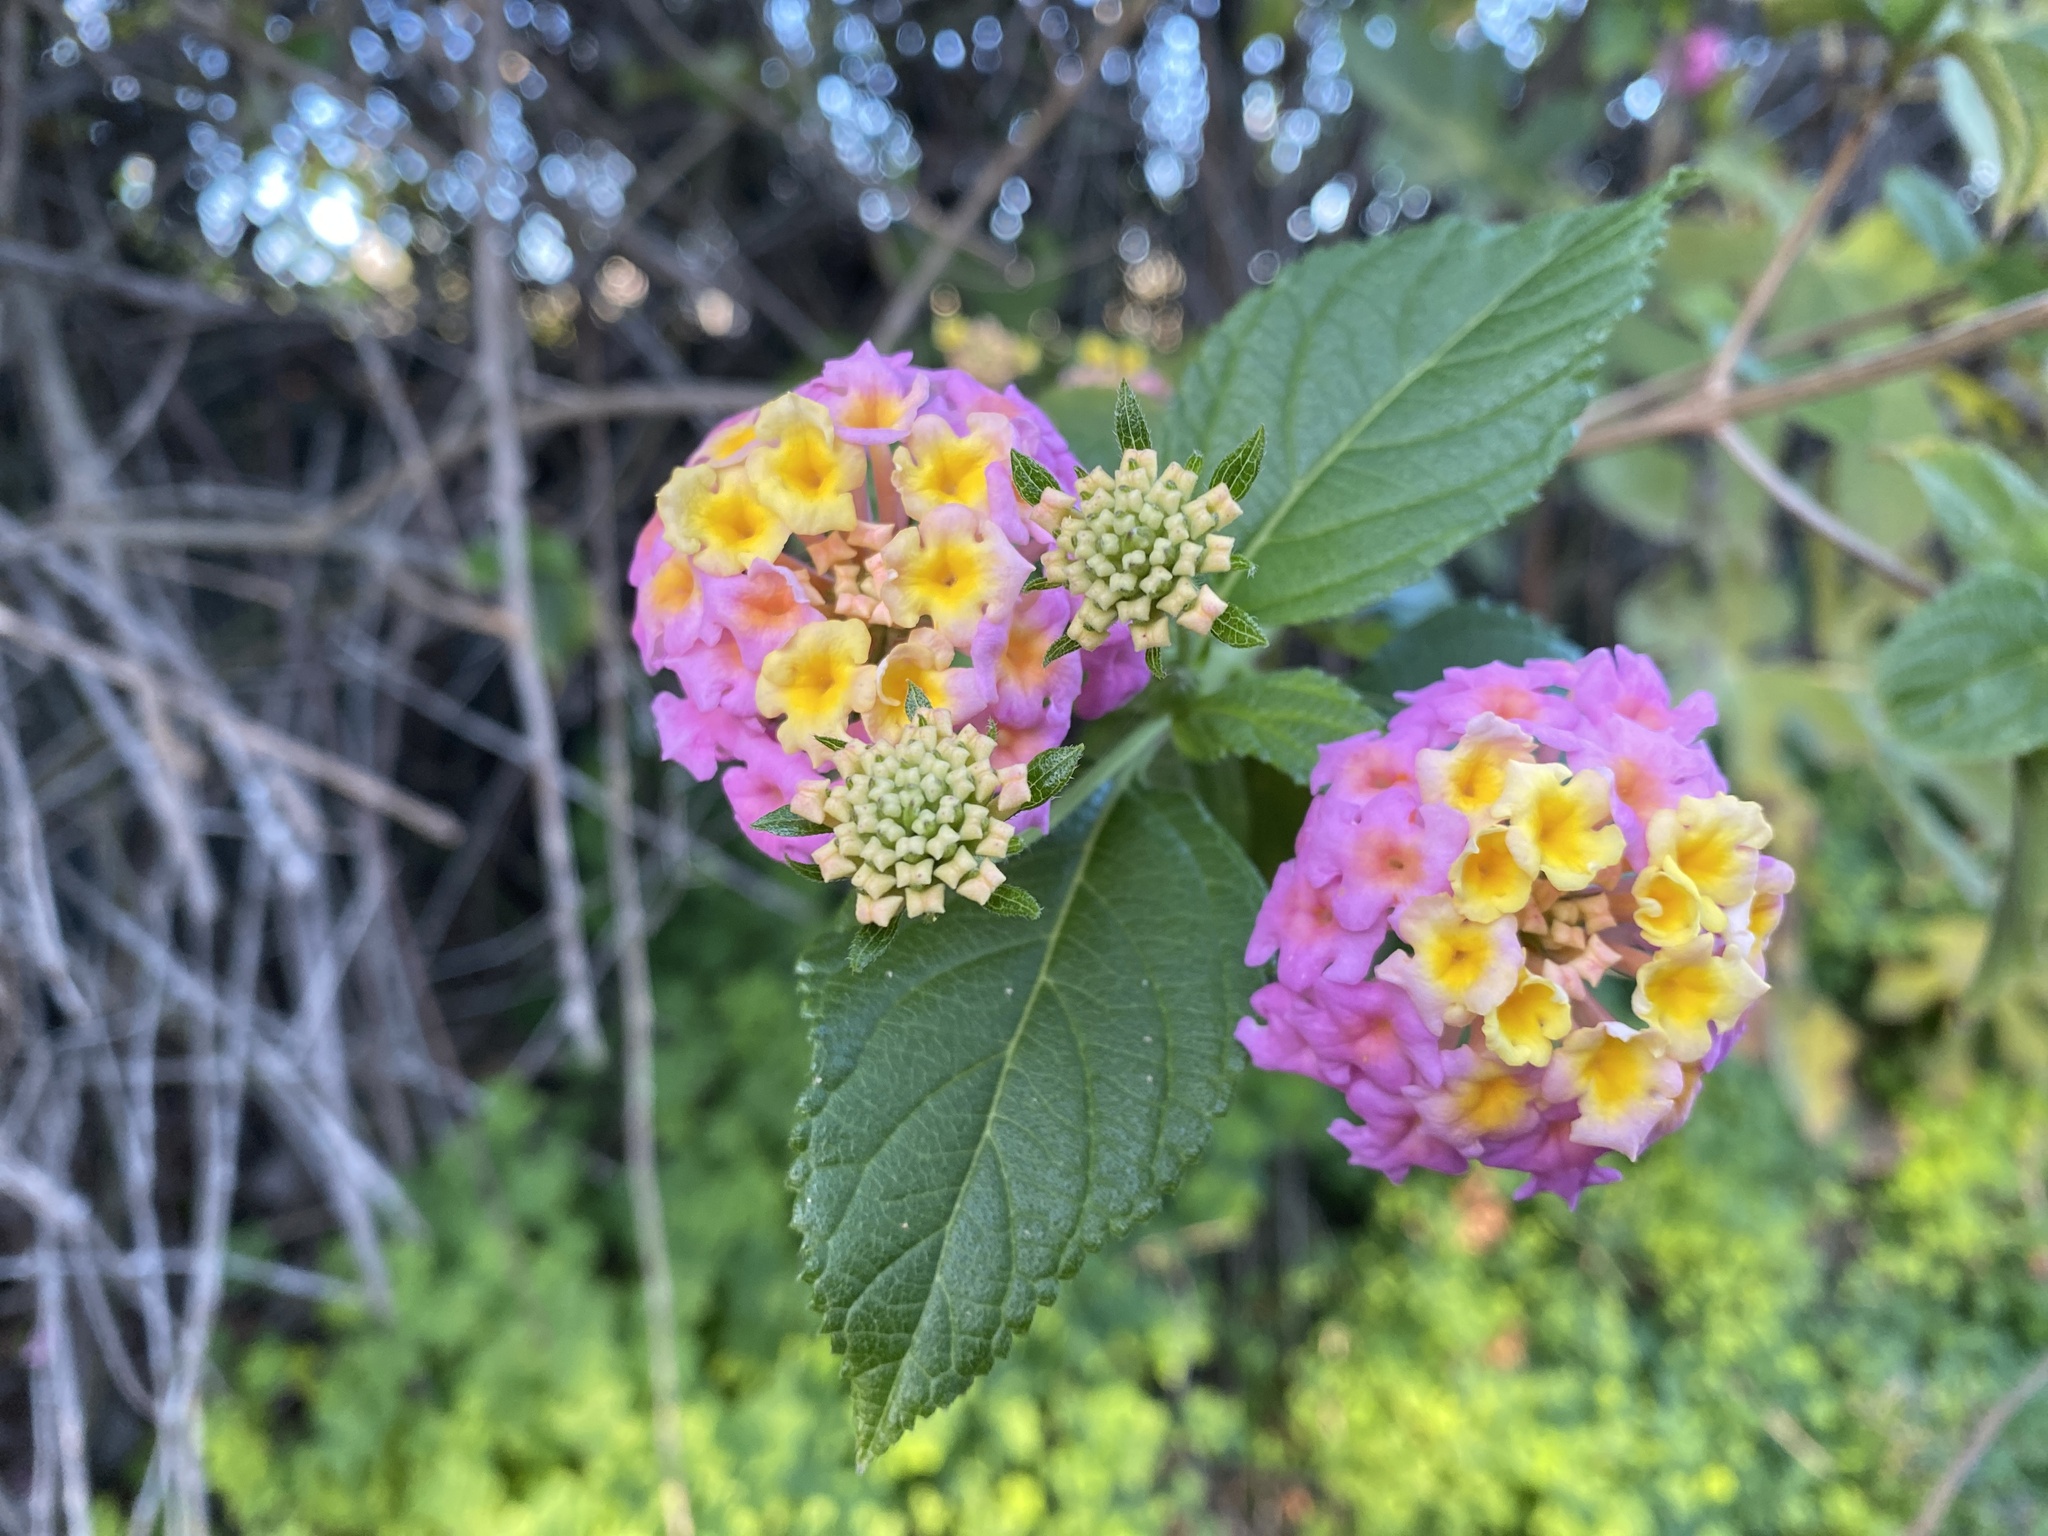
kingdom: Plantae
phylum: Tracheophyta
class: Magnoliopsida
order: Lamiales
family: Verbenaceae
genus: Lantana
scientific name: Lantana camara
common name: Lantana
